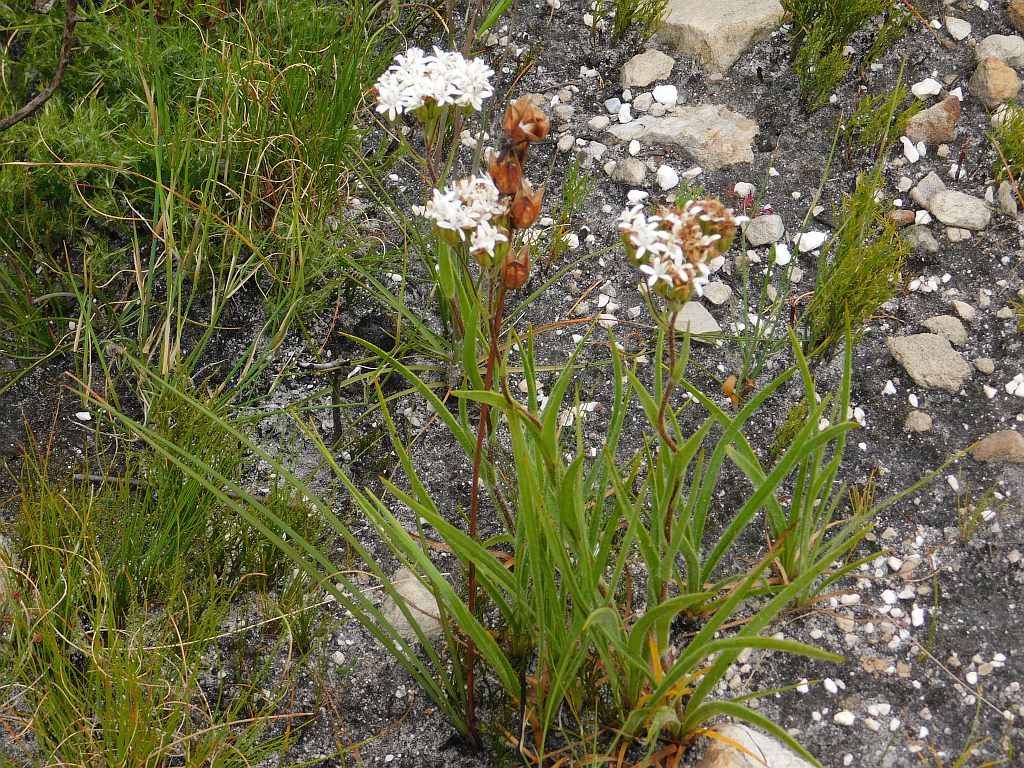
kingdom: Plantae
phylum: Tracheophyta
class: Magnoliopsida
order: Asterales
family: Asteraceae
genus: Corymbium
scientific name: Corymbium villosum
